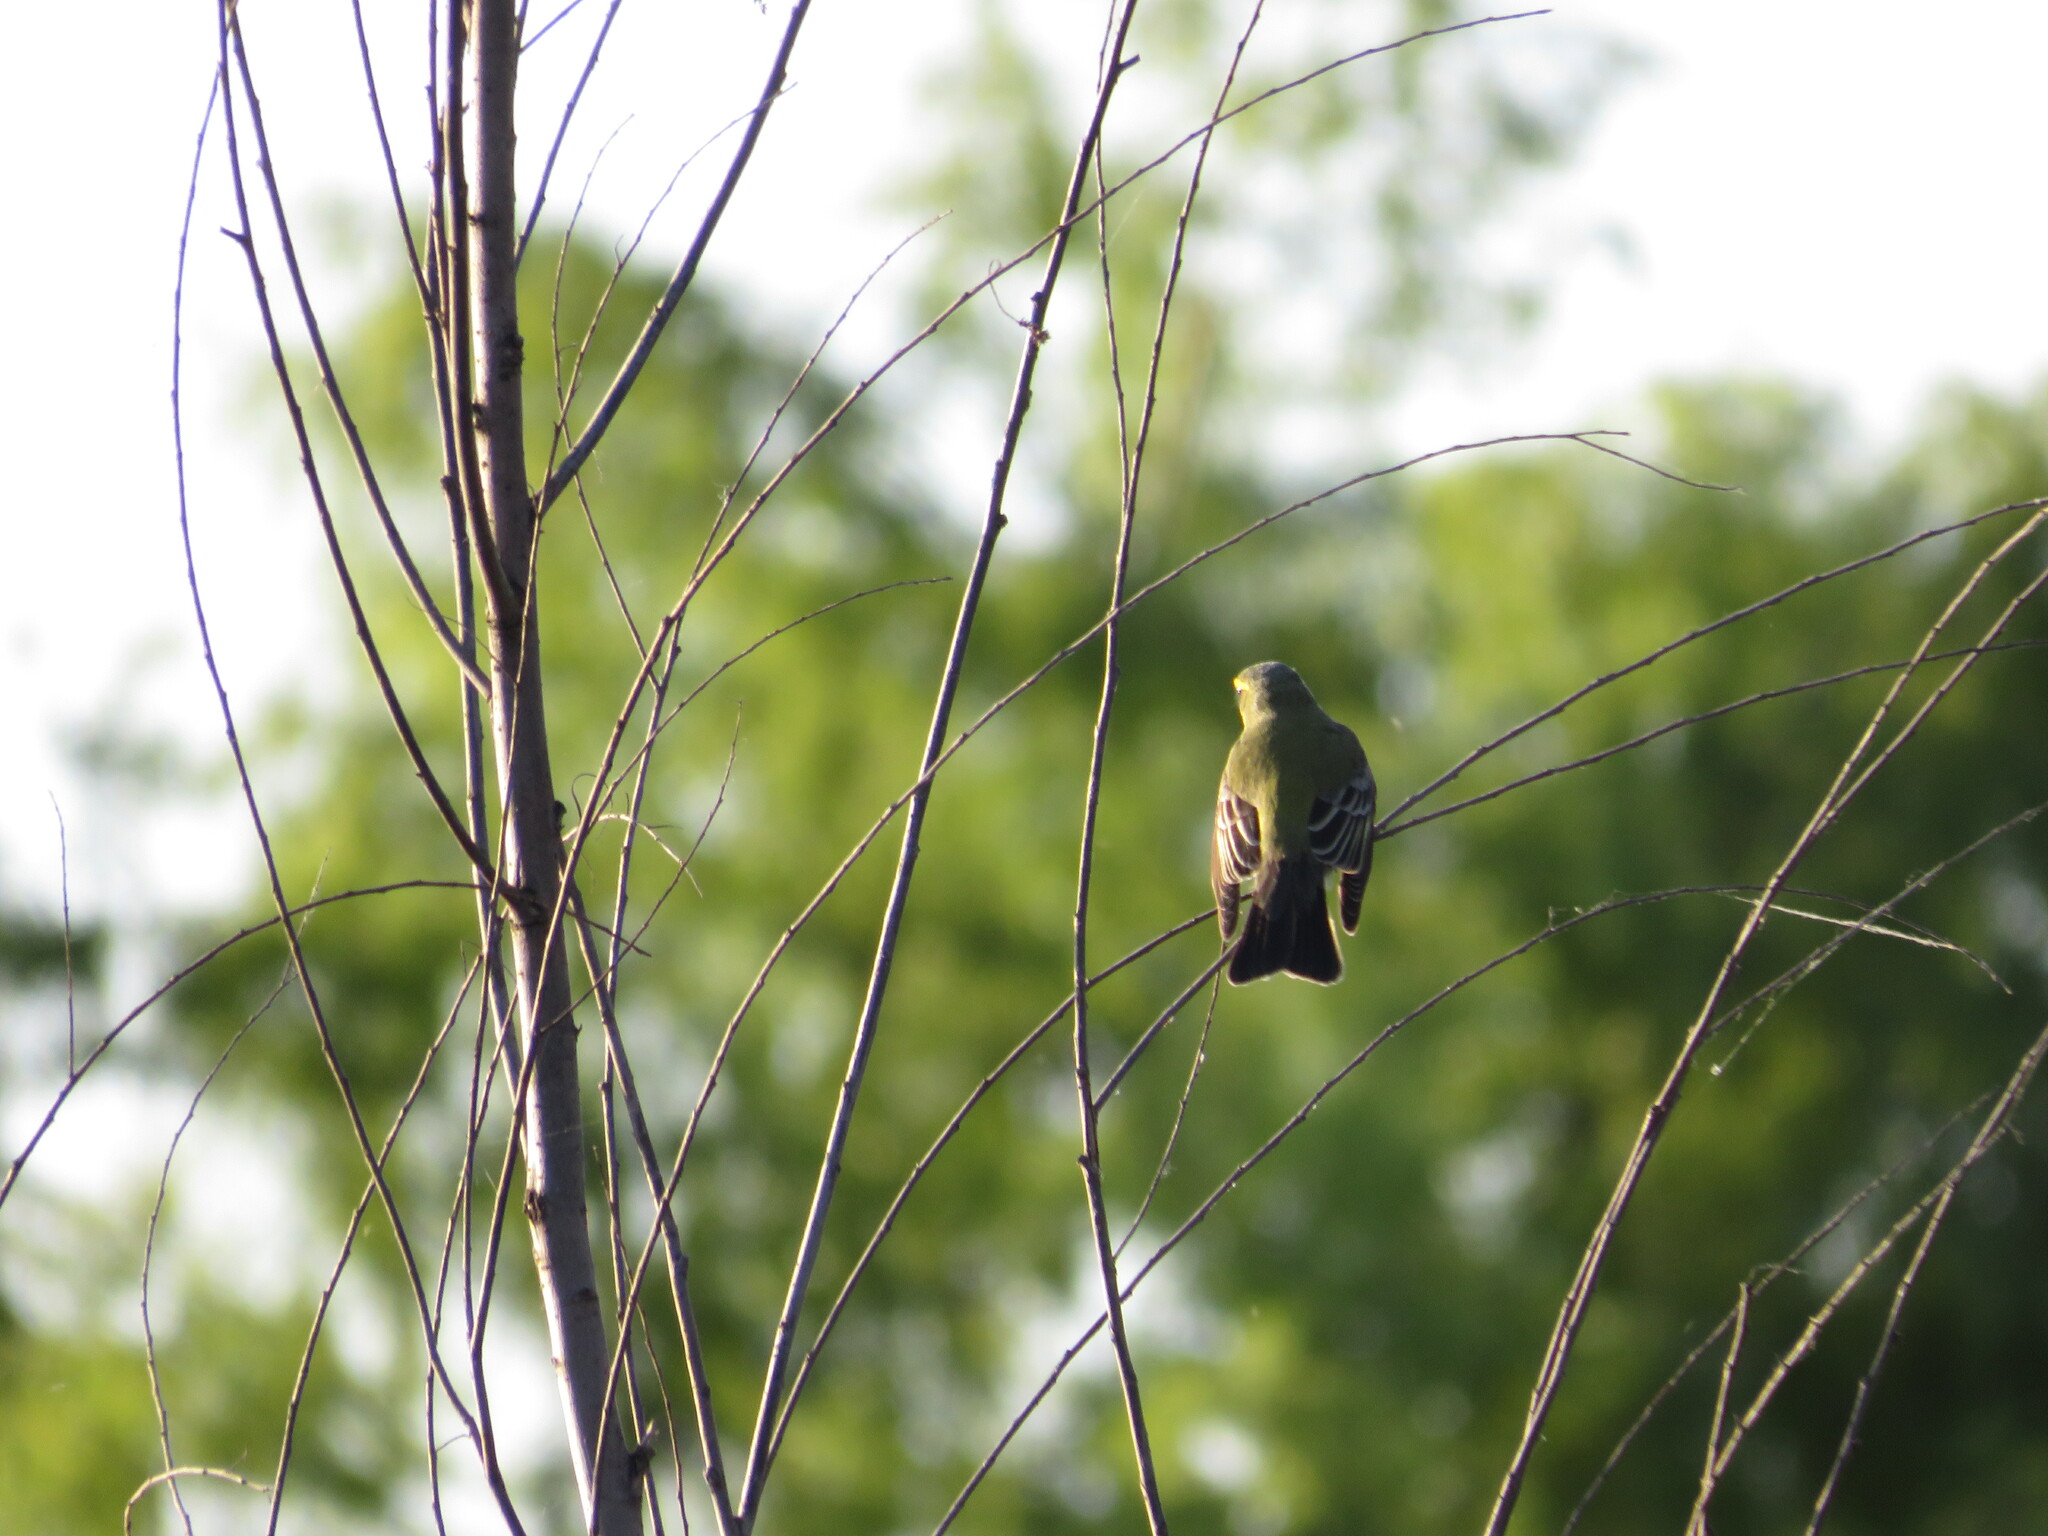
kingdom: Animalia
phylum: Chordata
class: Aves
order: Passeriformes
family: Tyrannidae
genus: Satrapa
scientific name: Satrapa icterophrys
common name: Yellow-browed tyrant
